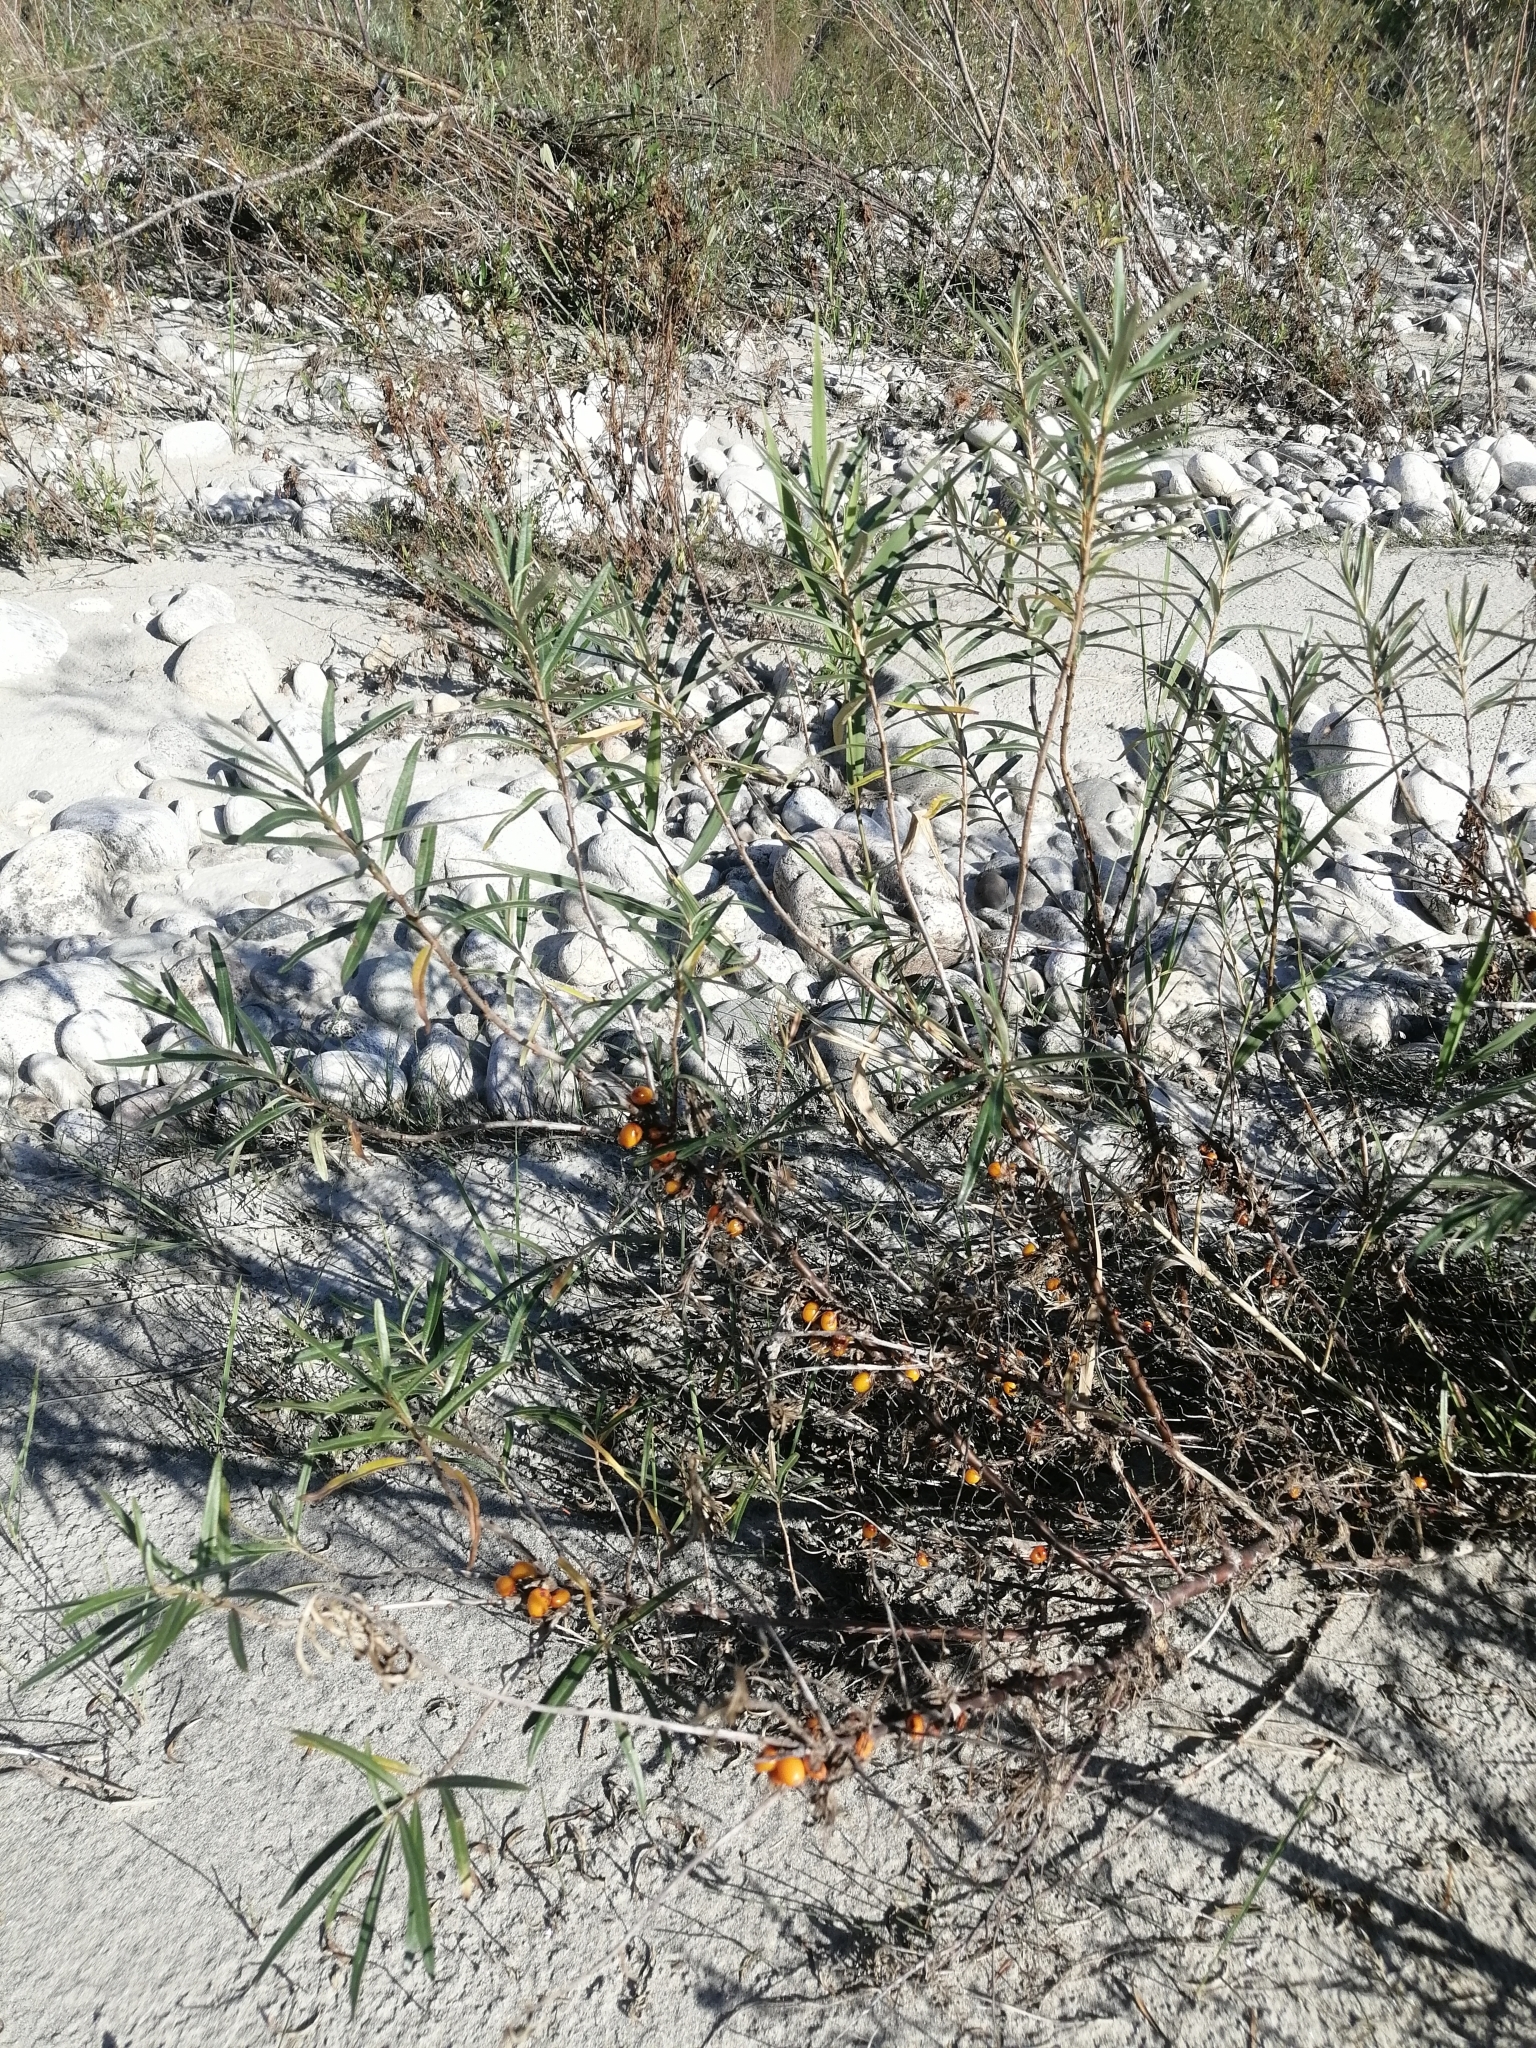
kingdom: Plantae
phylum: Tracheophyta
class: Magnoliopsida
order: Rosales
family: Elaeagnaceae
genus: Hippophae
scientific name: Hippophae rhamnoides
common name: Sea-buckthorn
